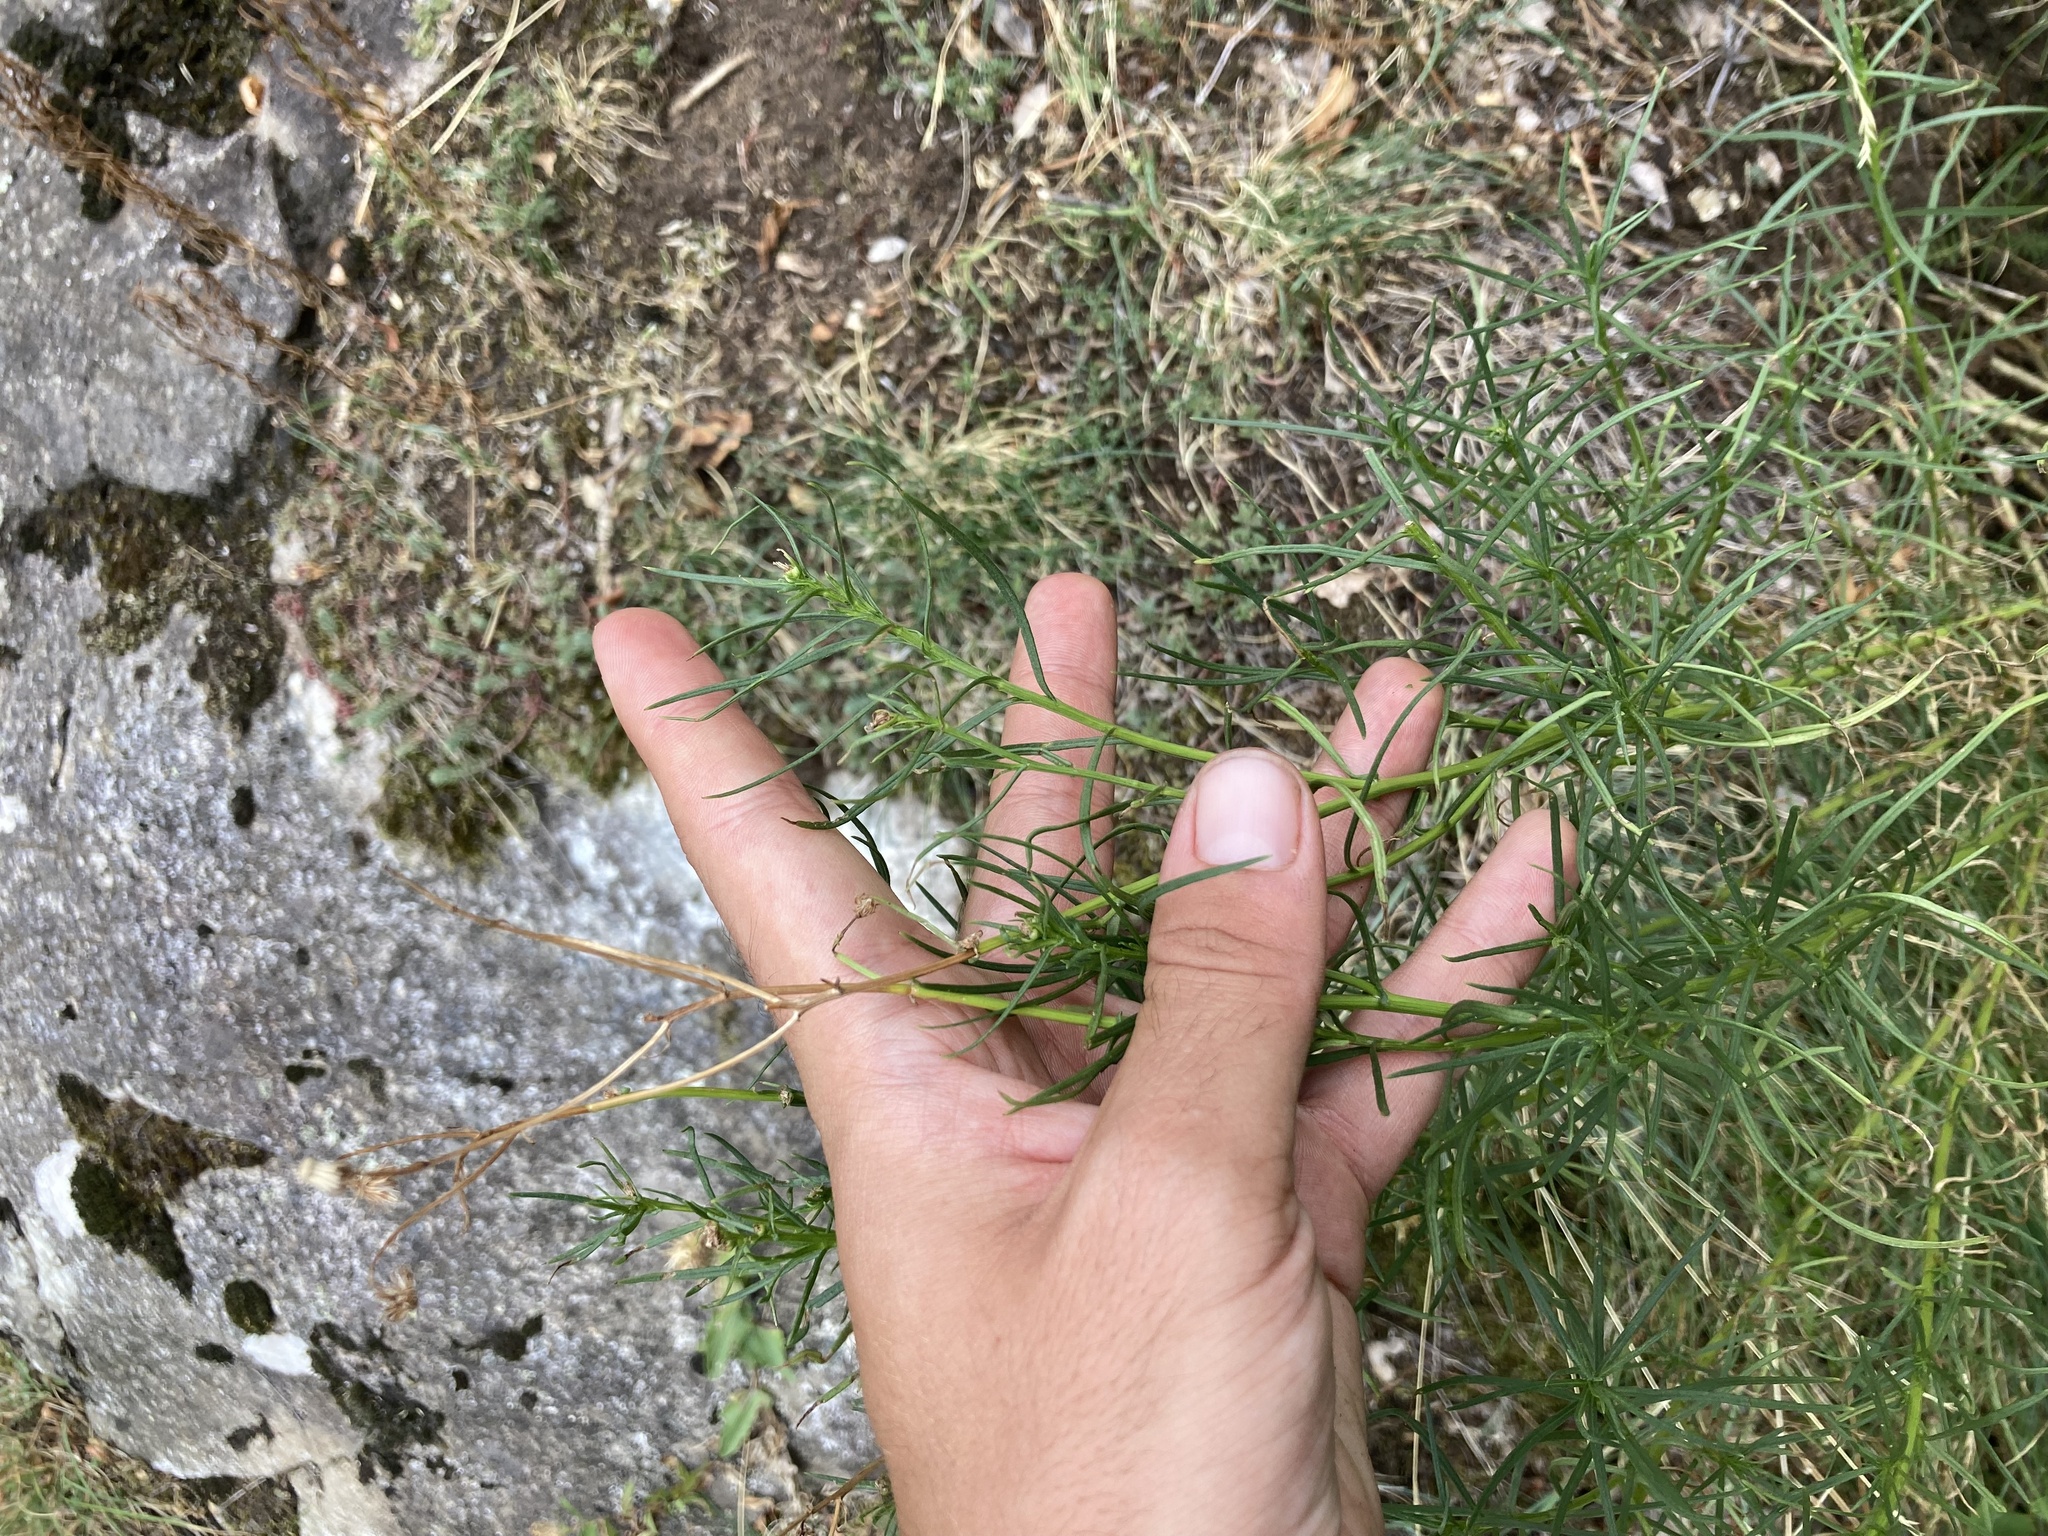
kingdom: Plantae
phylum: Tracheophyta
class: Magnoliopsida
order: Asterales
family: Asteraceae
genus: Senecio
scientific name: Senecio inaequidens
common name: Narrow-leaved ragwort
